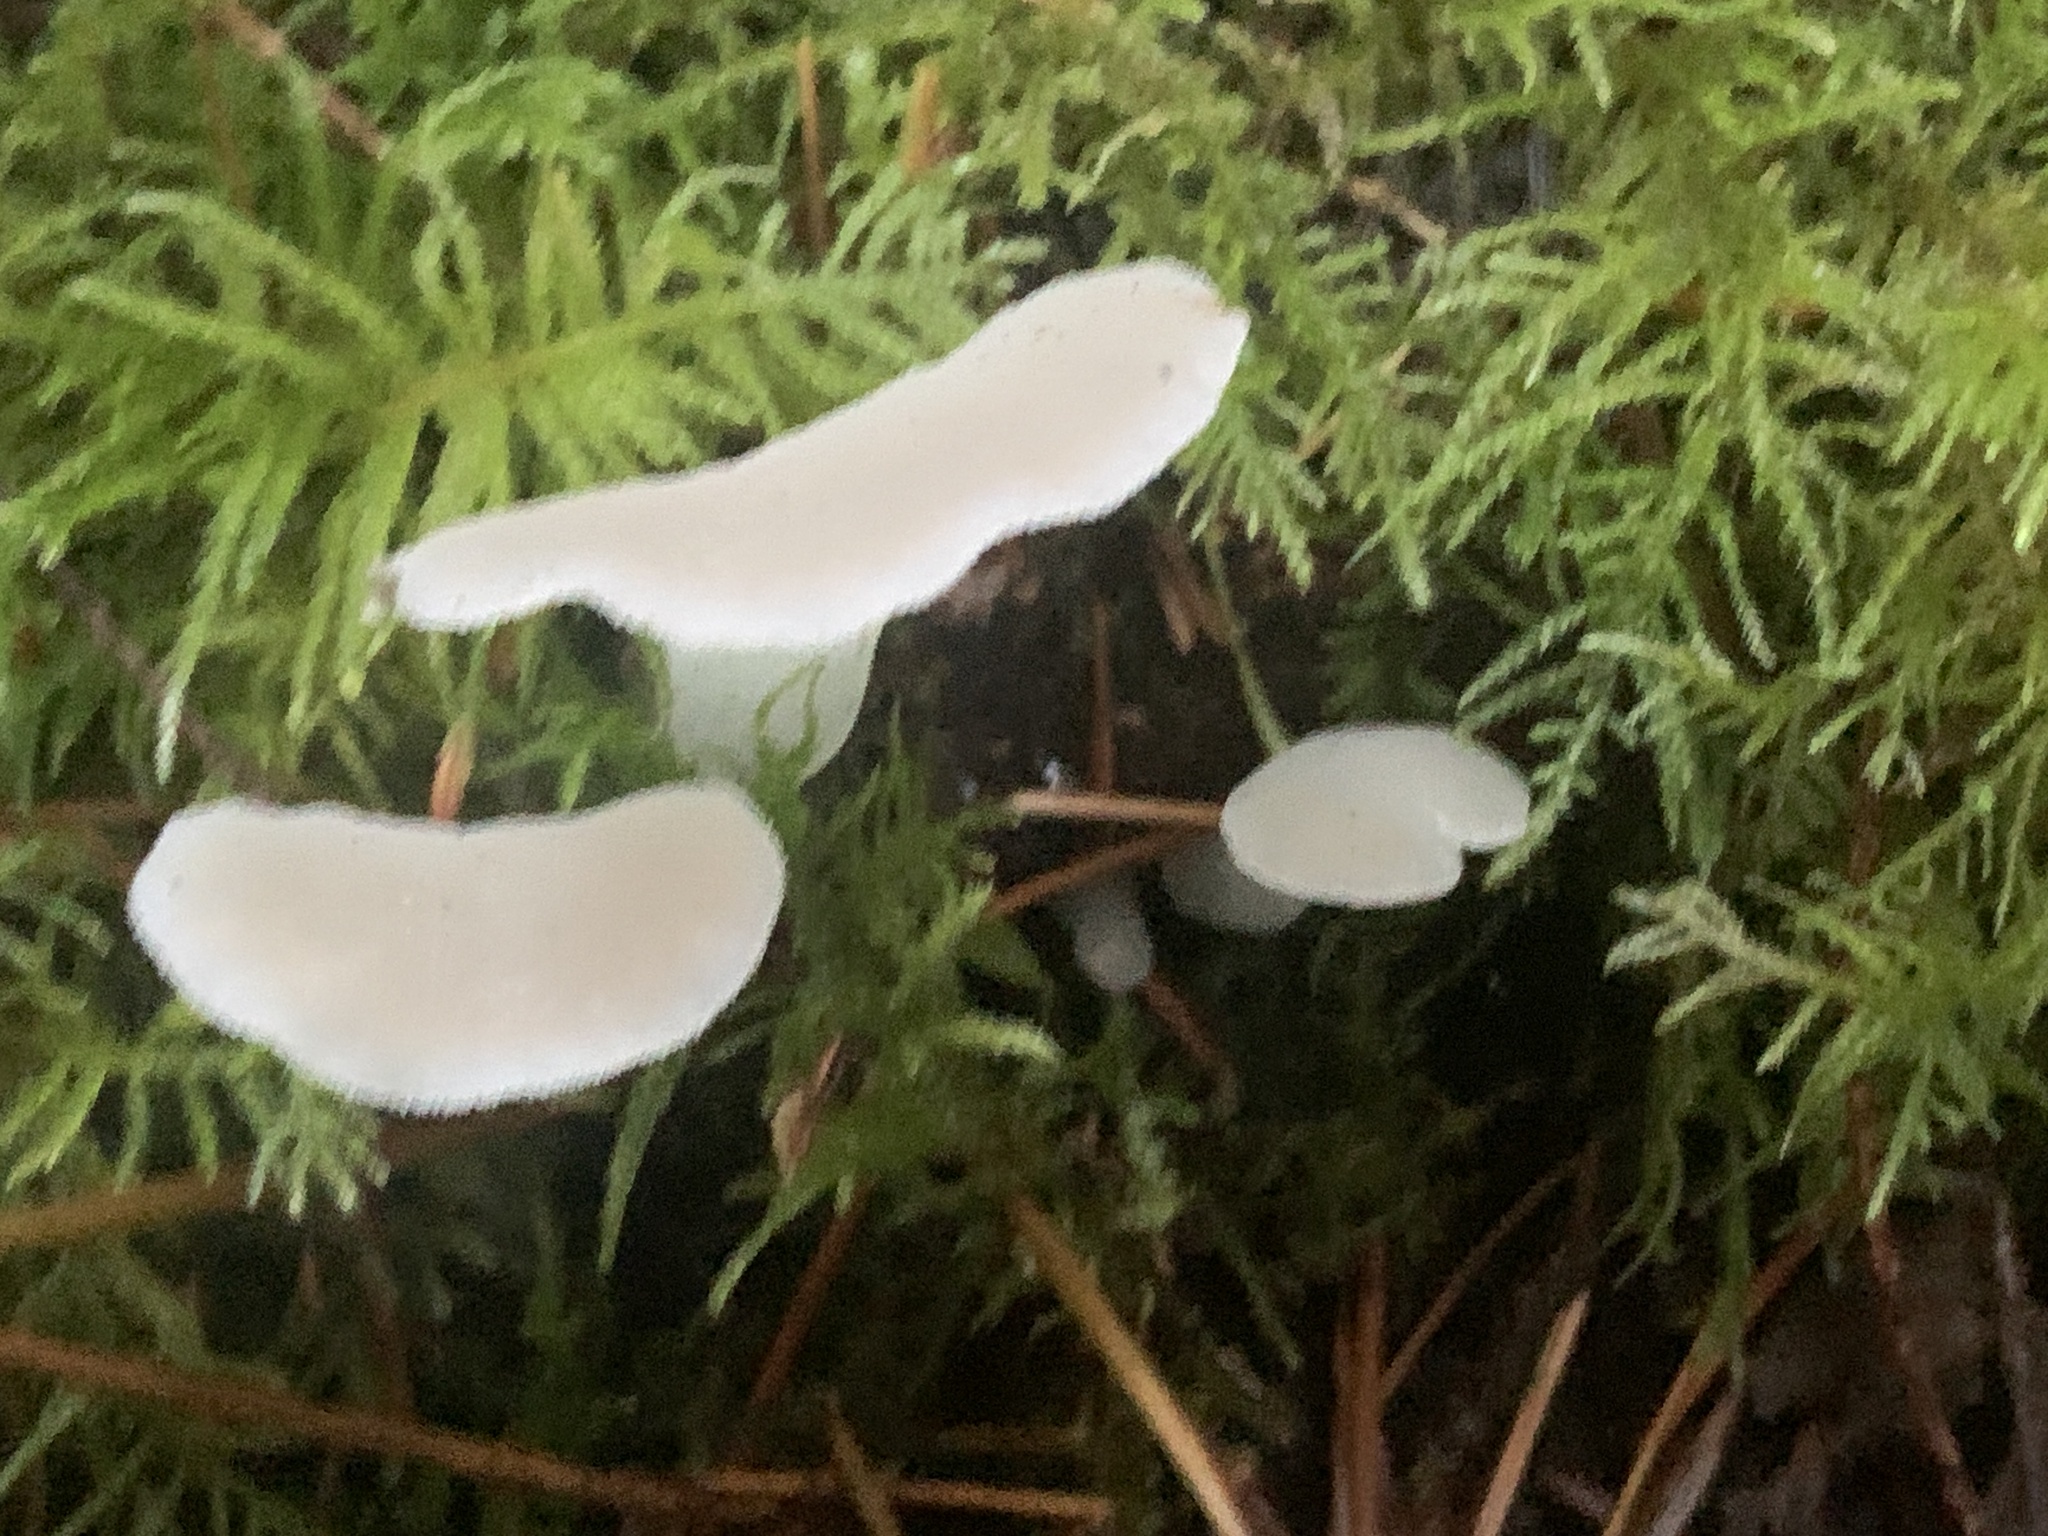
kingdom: Fungi
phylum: Basidiomycota
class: Agaricomycetes
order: Auriculariales
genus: Pseudohydnum
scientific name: Pseudohydnum gelatinosum
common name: Jelly tongue
